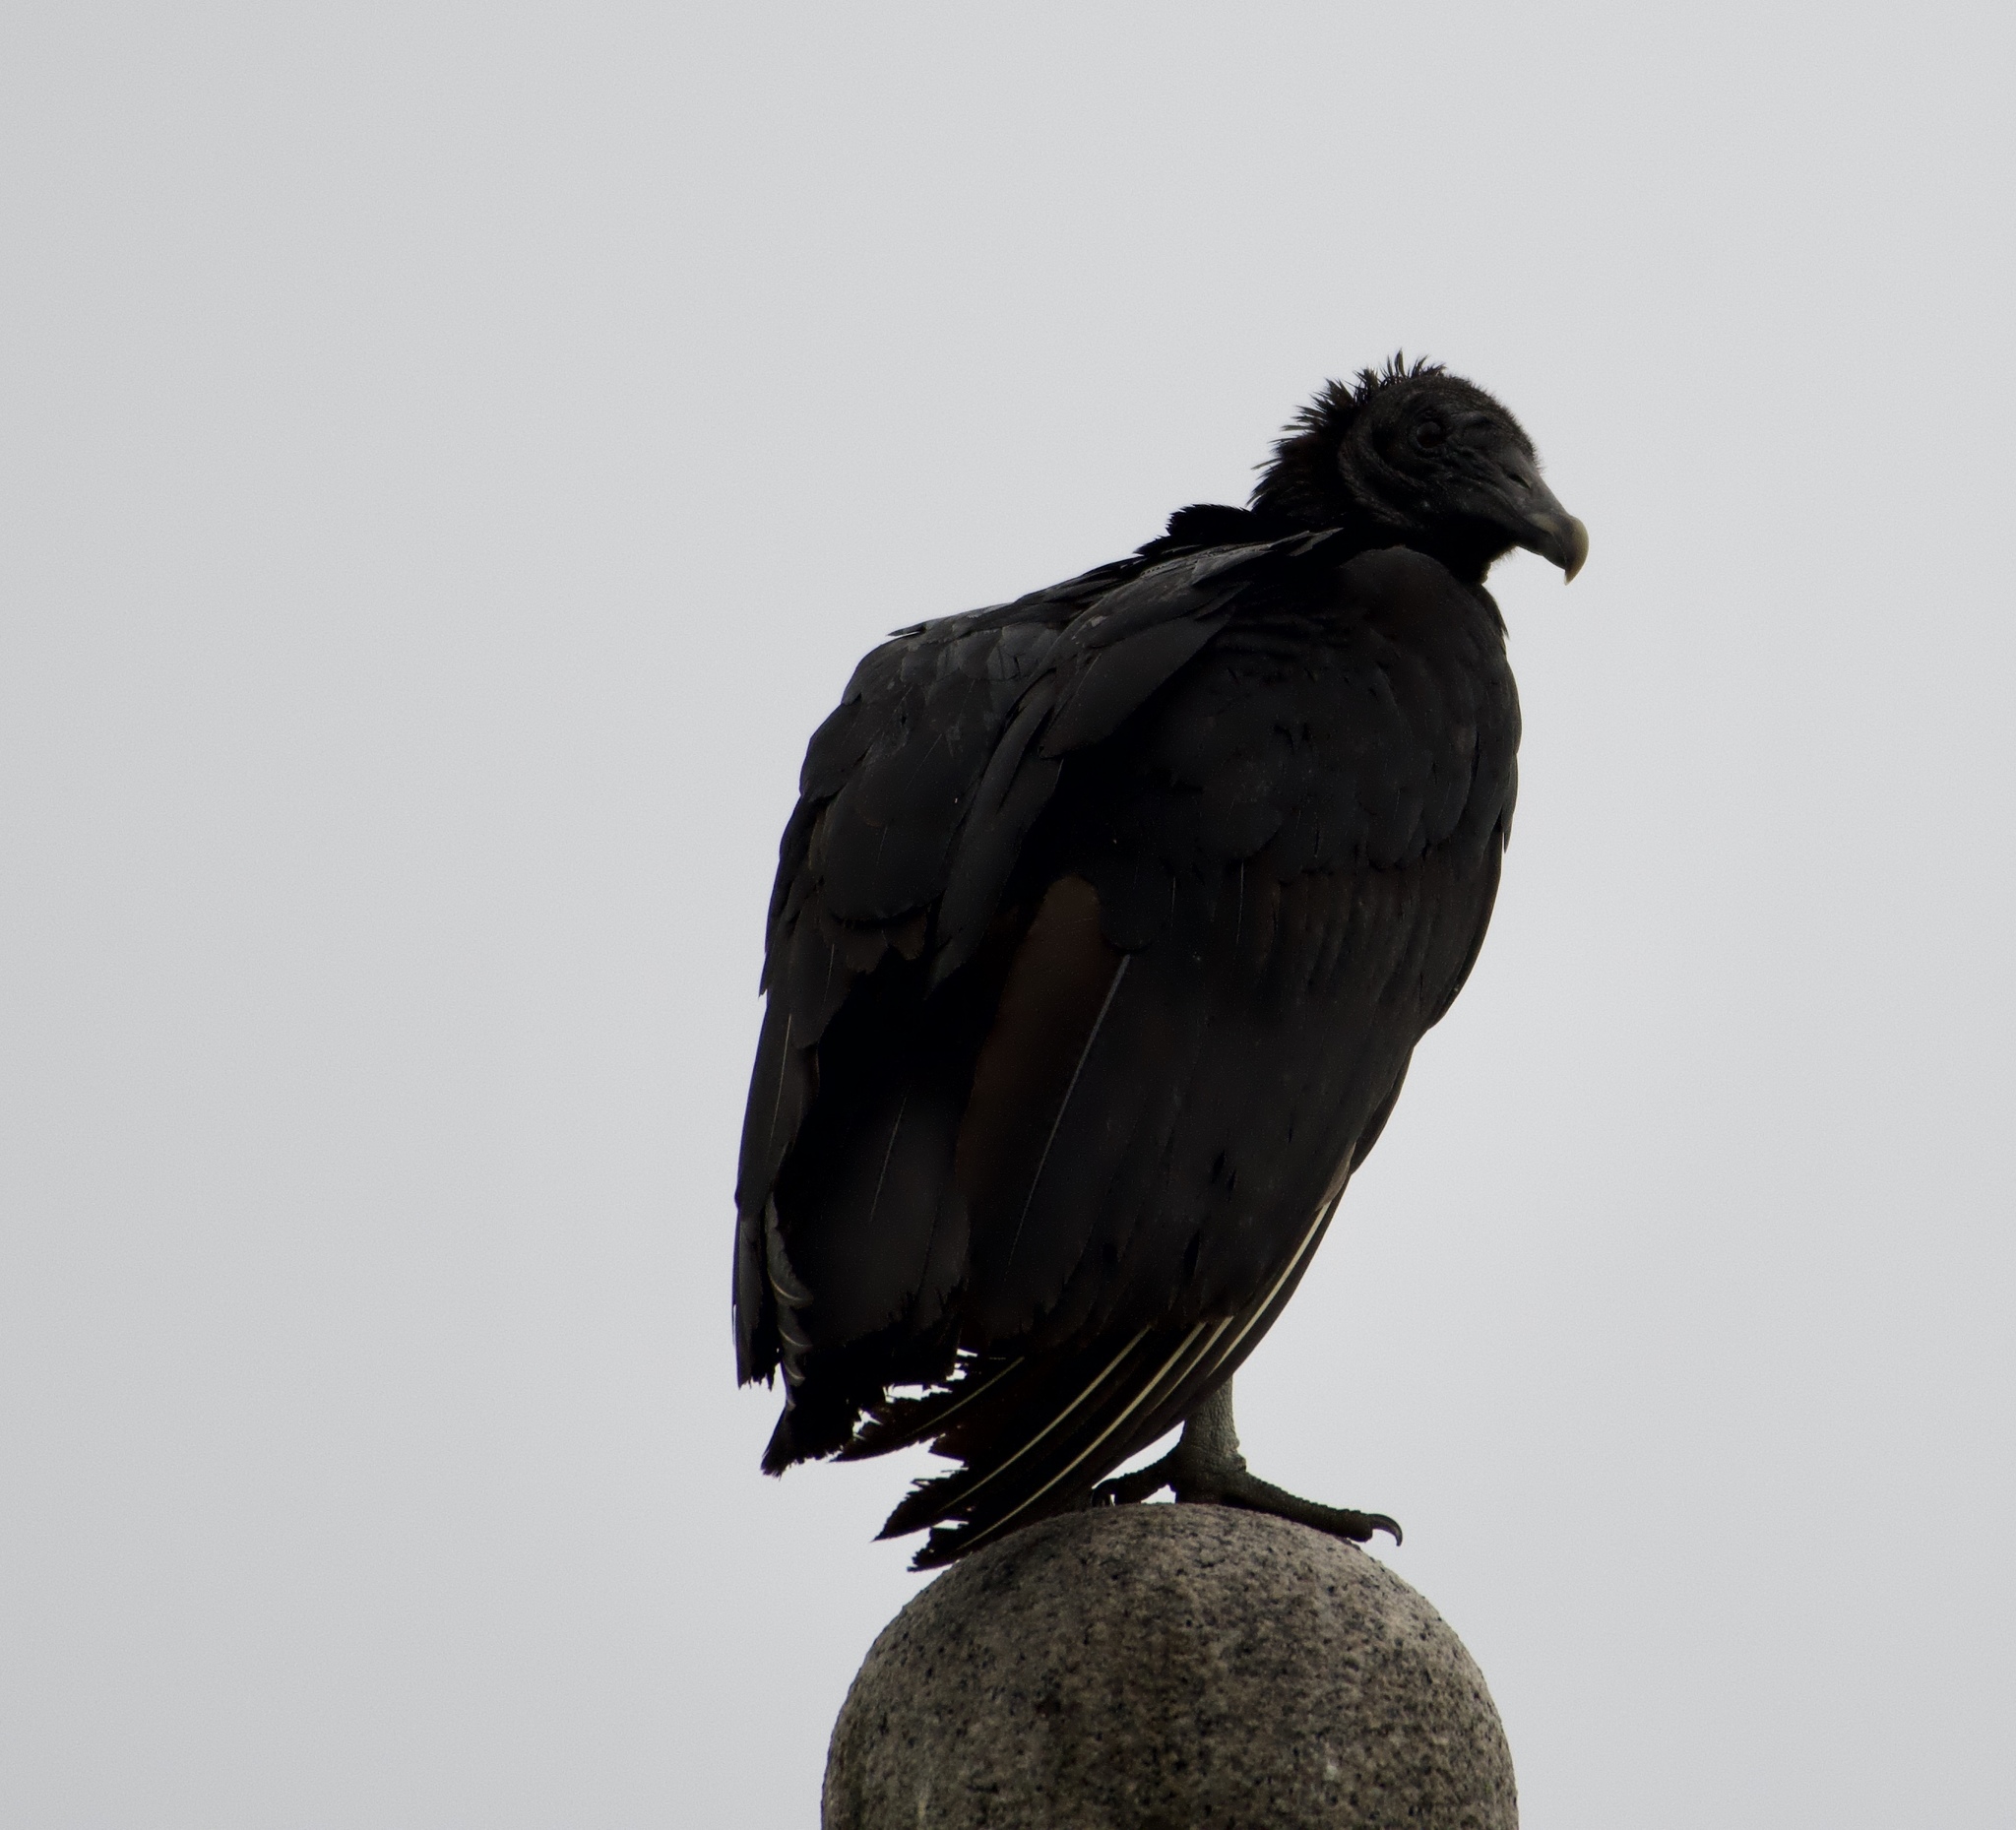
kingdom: Animalia
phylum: Chordata
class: Aves
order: Accipitriformes
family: Cathartidae
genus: Coragyps
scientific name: Coragyps atratus
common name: Black vulture
